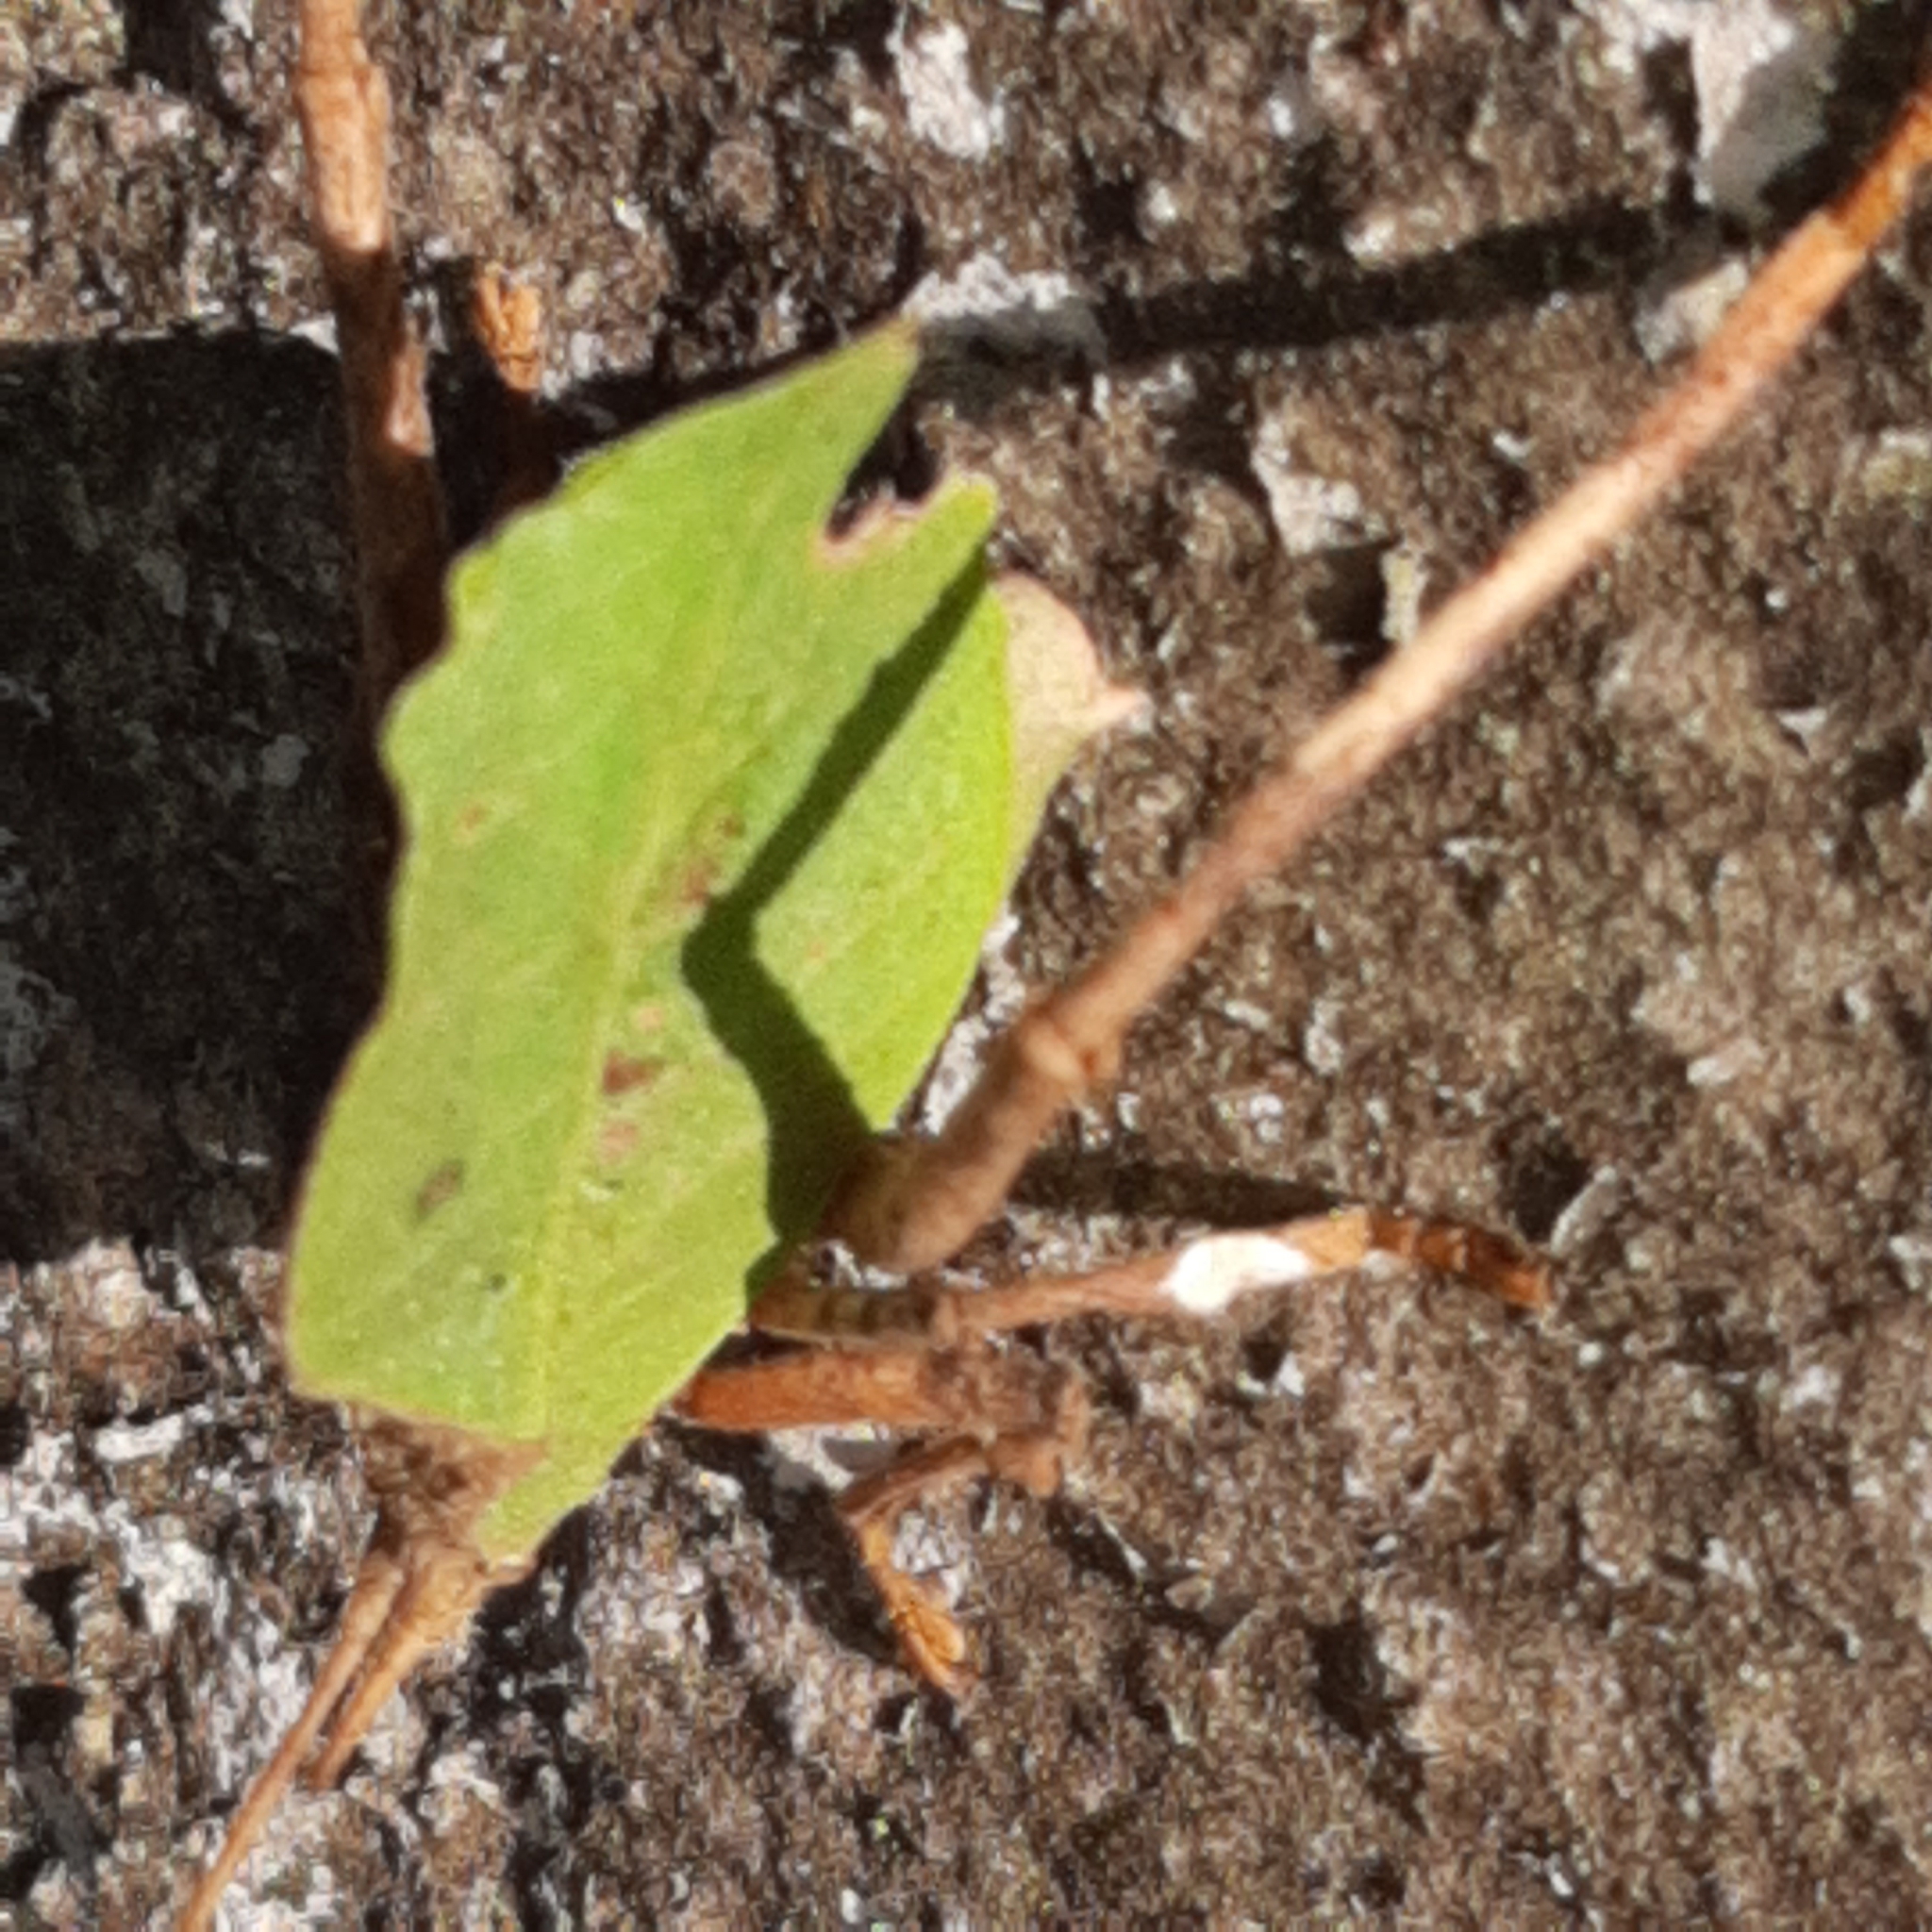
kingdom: Animalia
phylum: Arthropoda
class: Insecta
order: Orthoptera
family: Tettigoniidae
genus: Mimetica
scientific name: Mimetica crenulata
